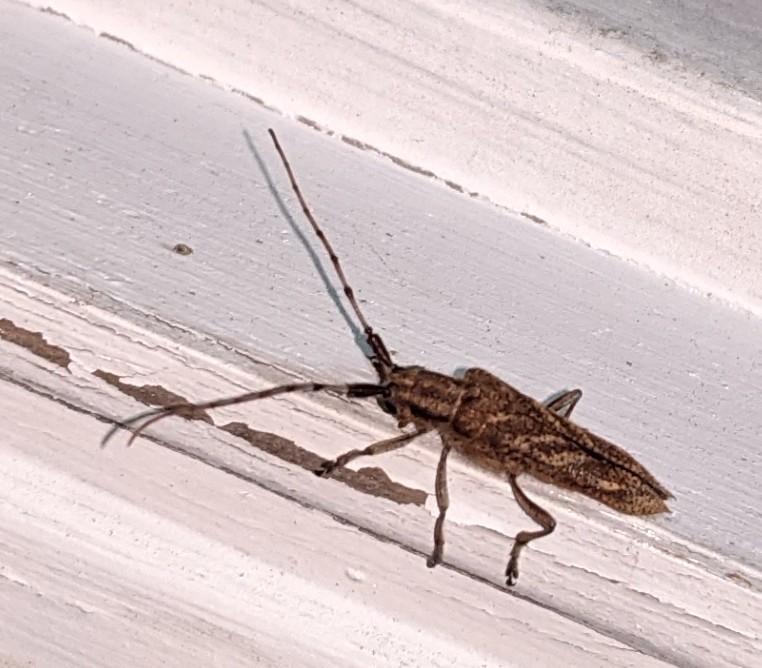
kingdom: Animalia
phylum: Arthropoda
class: Insecta
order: Coleoptera
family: Cerambycidae
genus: Saperda
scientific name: Saperda obliqua
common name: Alder borer
